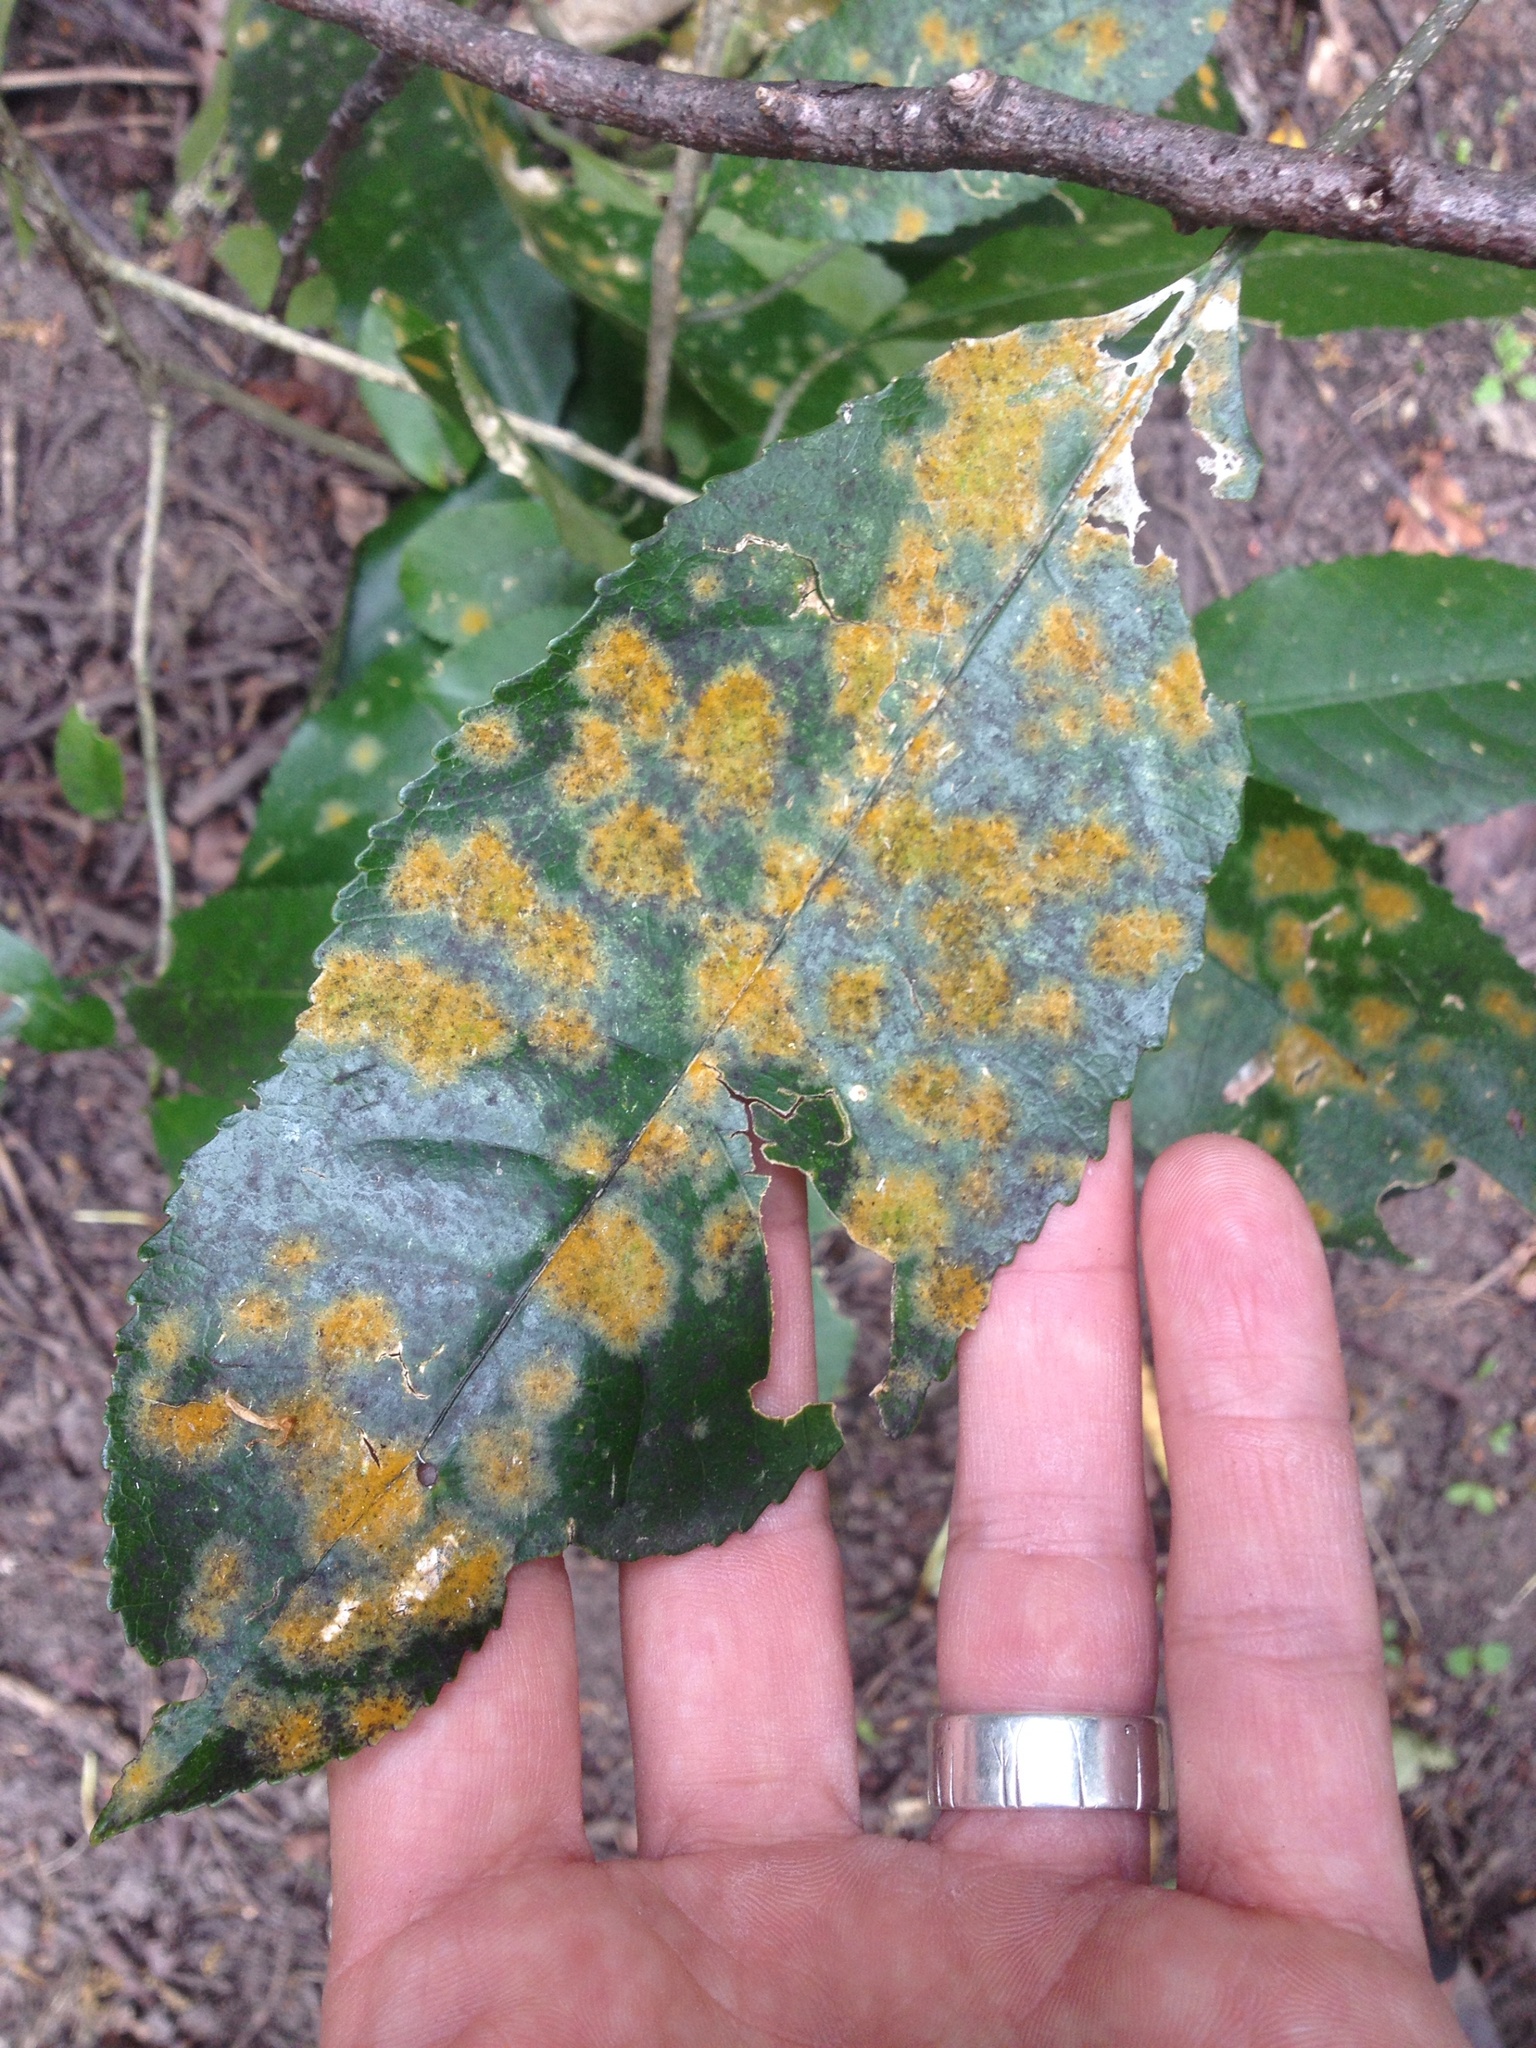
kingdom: Plantae
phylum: Chlorophyta
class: Ulvophyceae
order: Trentepohliales
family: Trentepohliaceae
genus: Cephaleuros
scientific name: Cephaleuros
